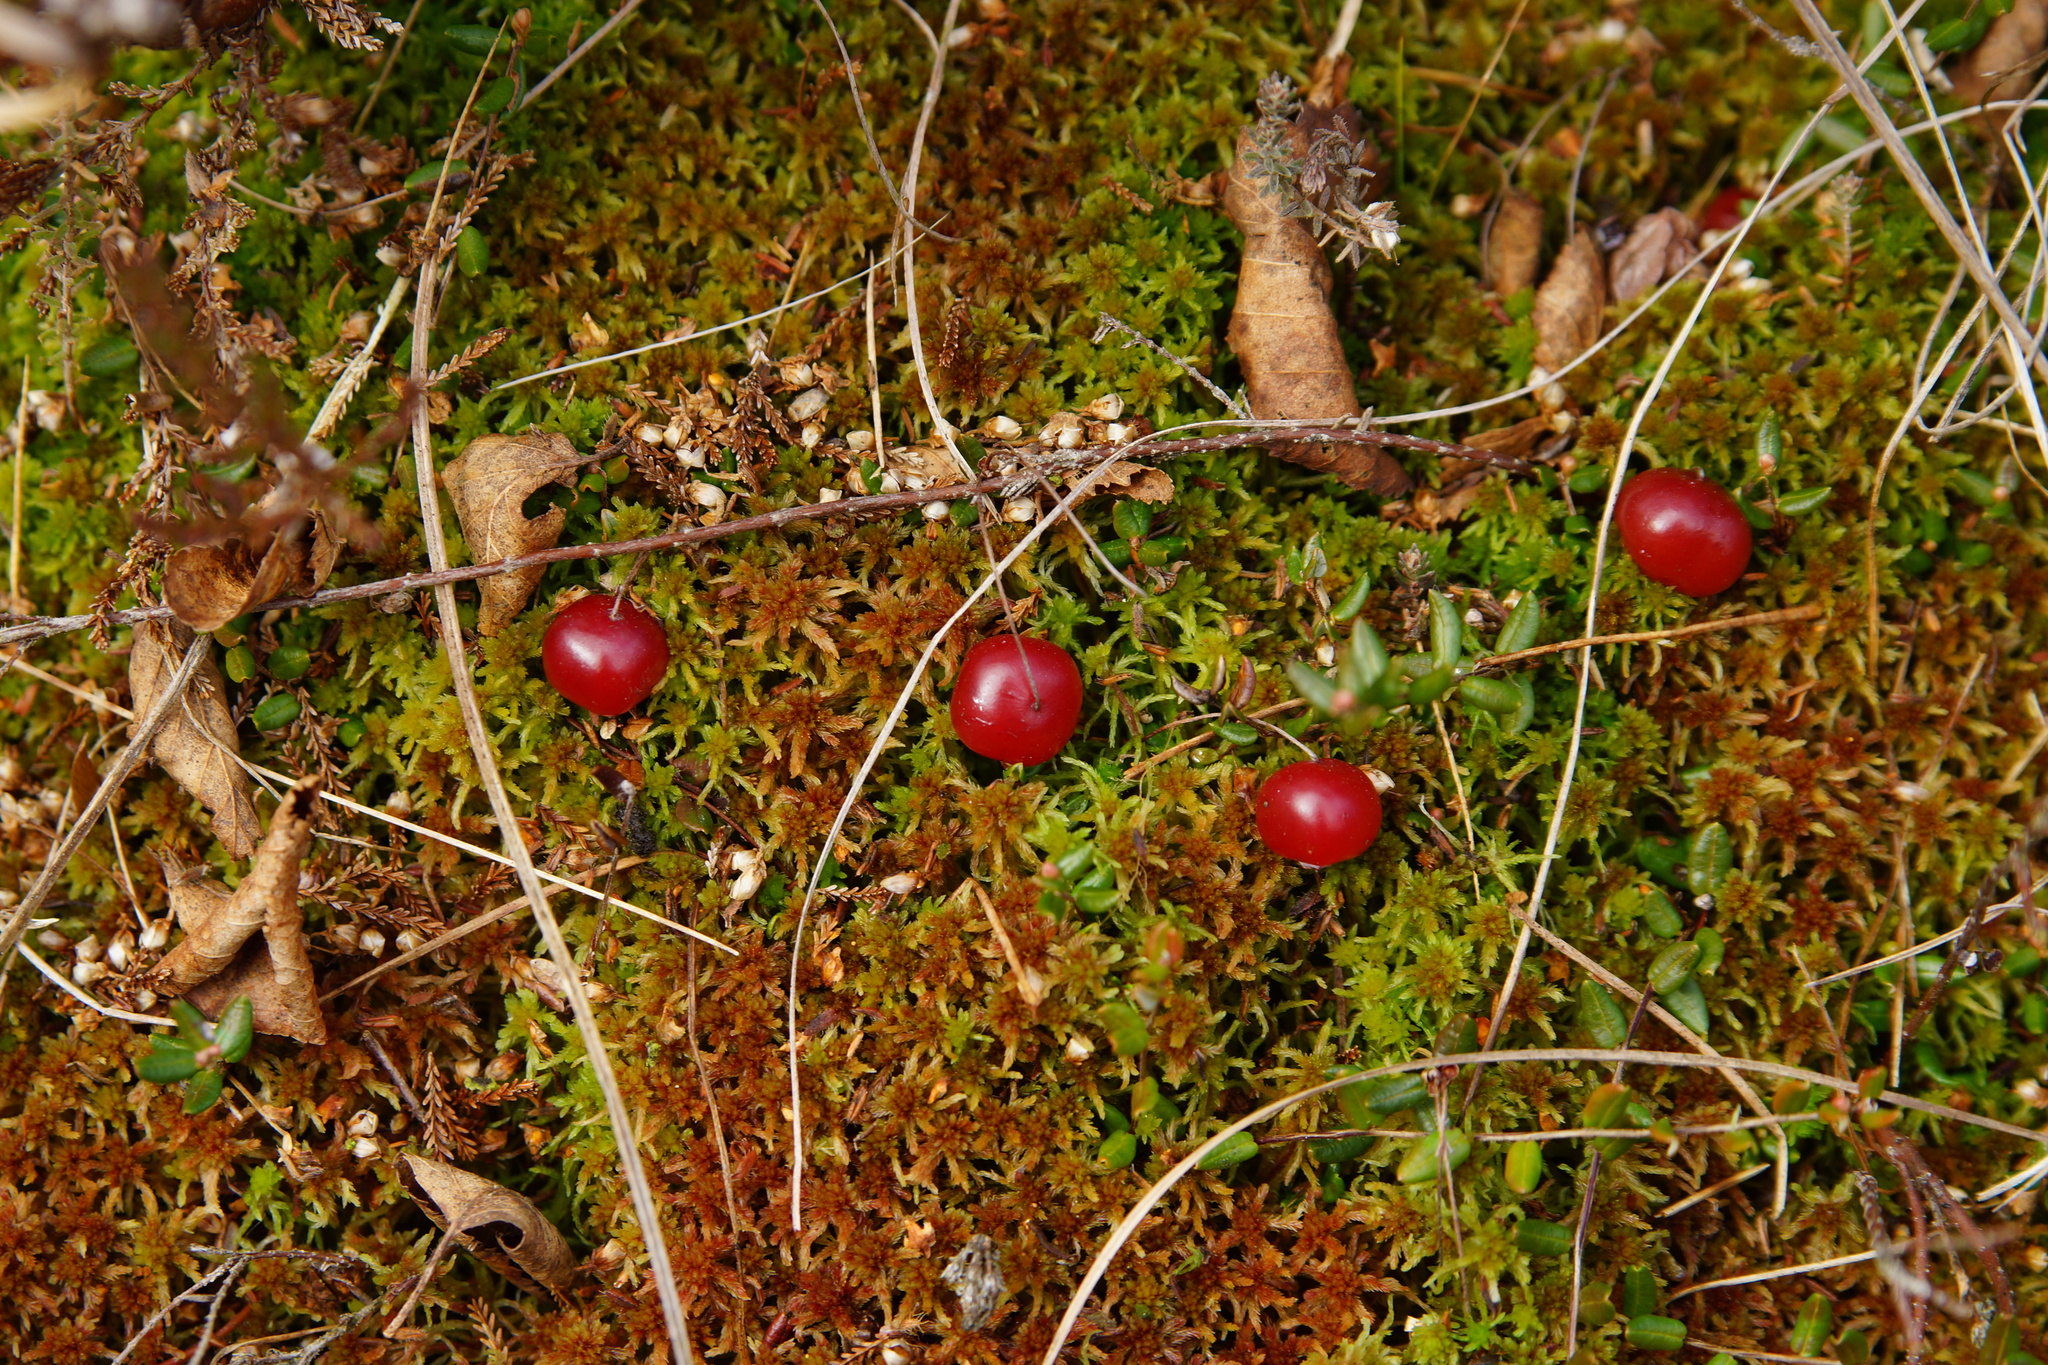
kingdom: Plantae
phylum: Tracheophyta
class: Magnoliopsida
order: Ericales
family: Ericaceae
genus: Vaccinium
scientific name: Vaccinium oxycoccos
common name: Cranberry
